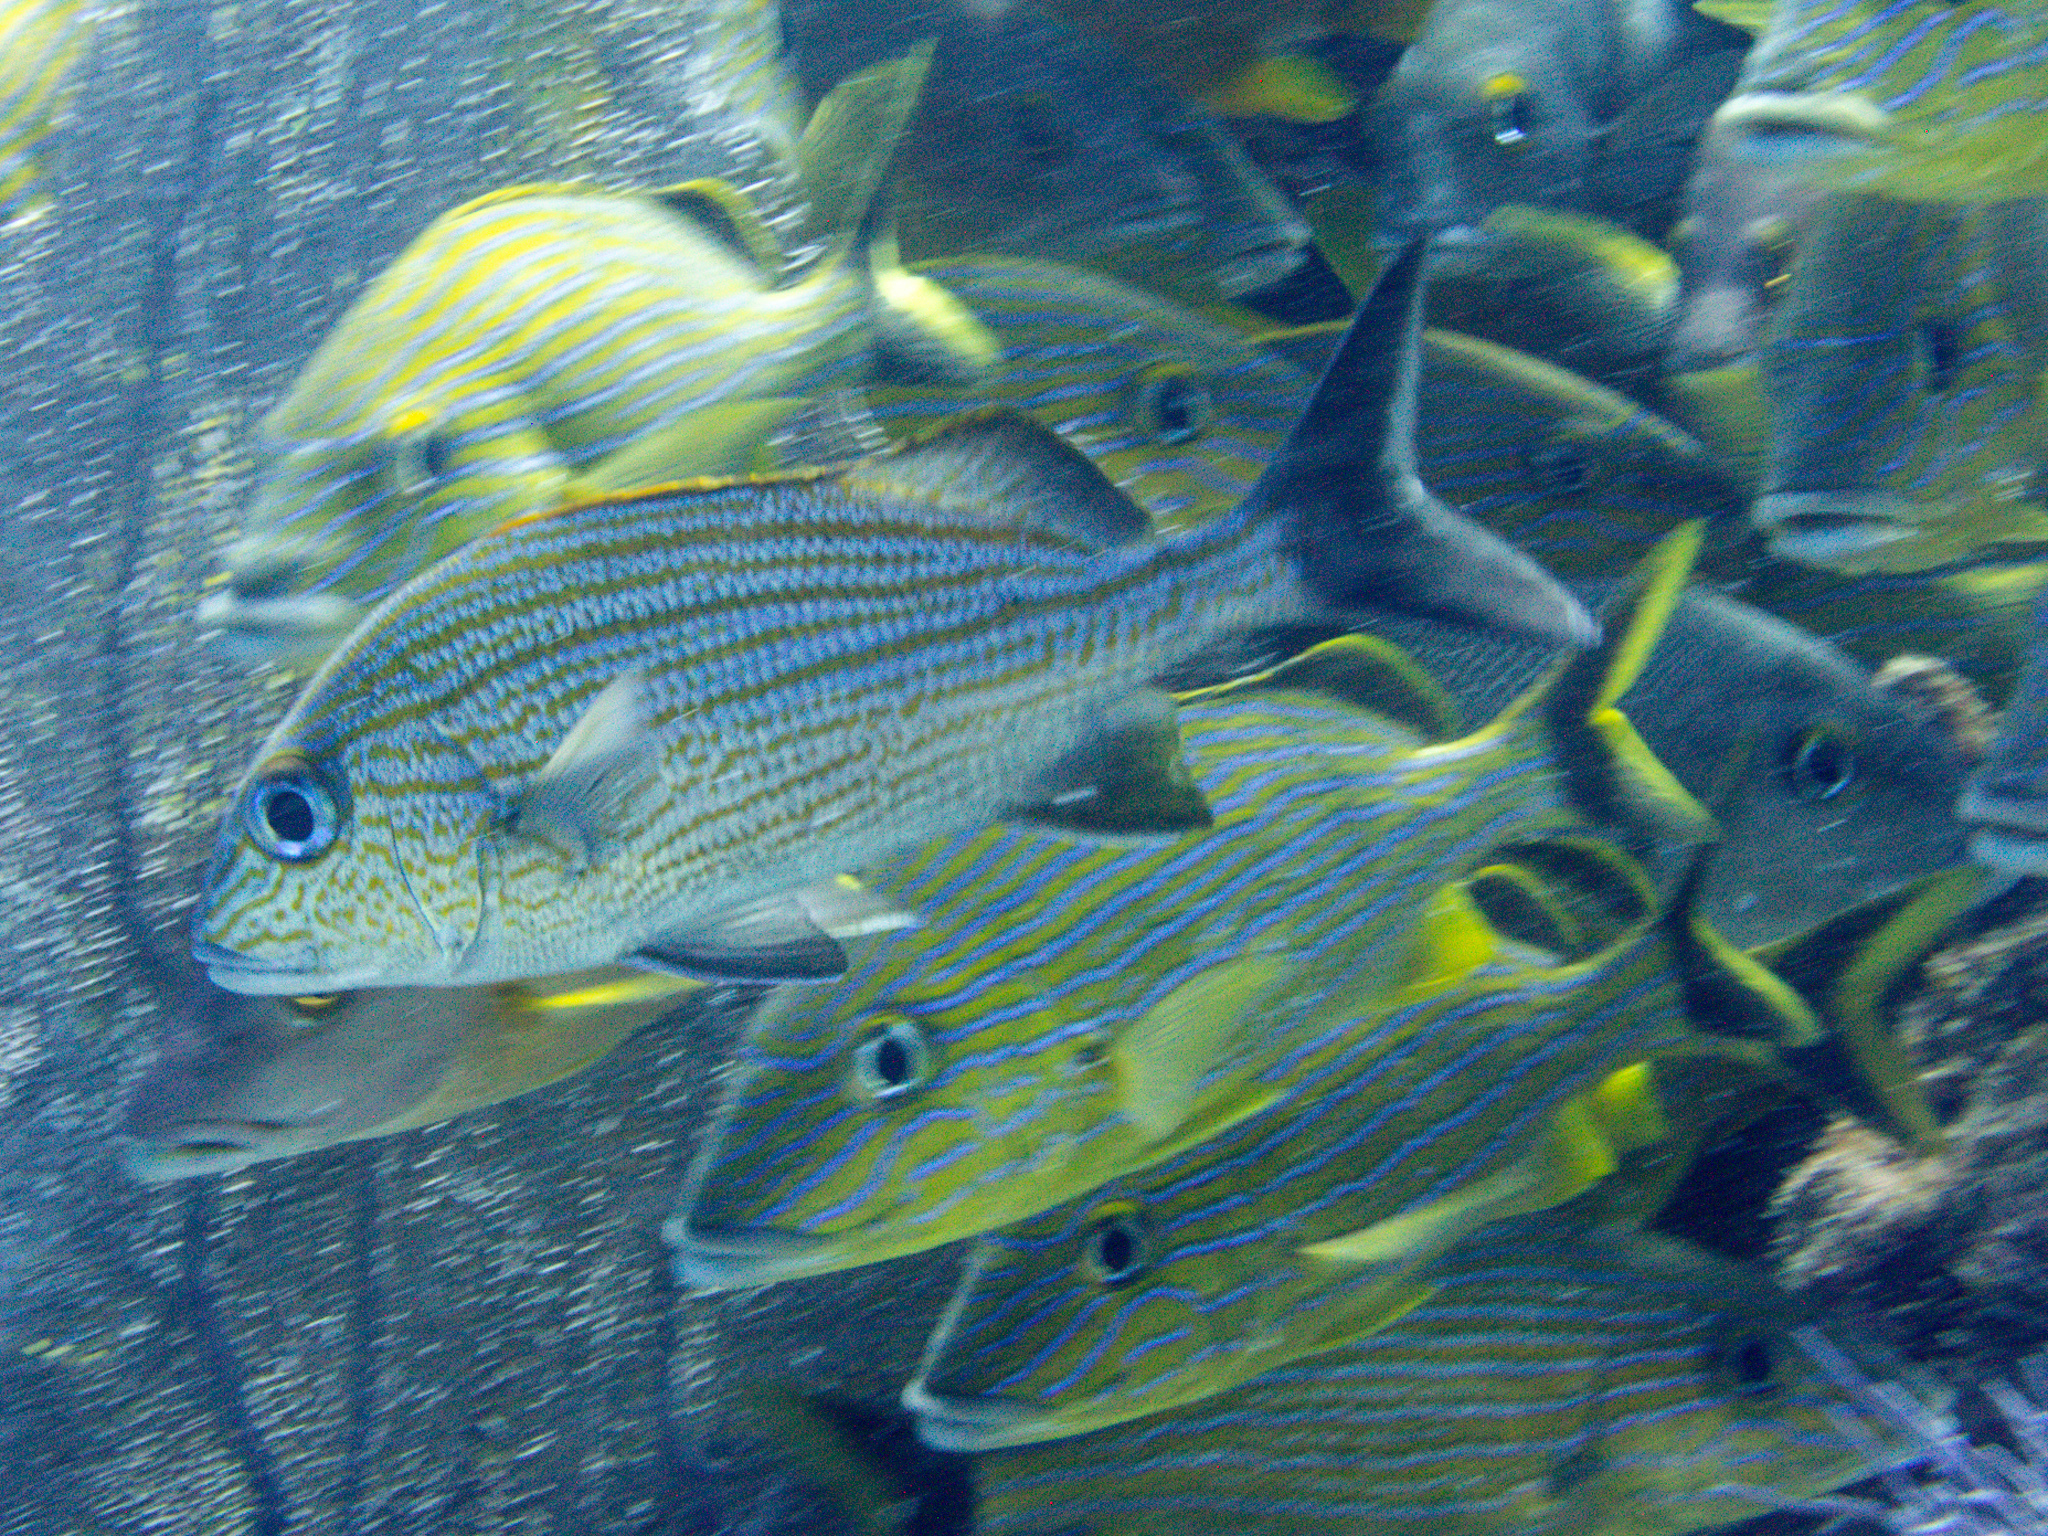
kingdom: Animalia
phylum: Chordata
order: Perciformes
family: Haemulidae
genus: Haemulon
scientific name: Haemulon carbonarium
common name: Caesar grunt
